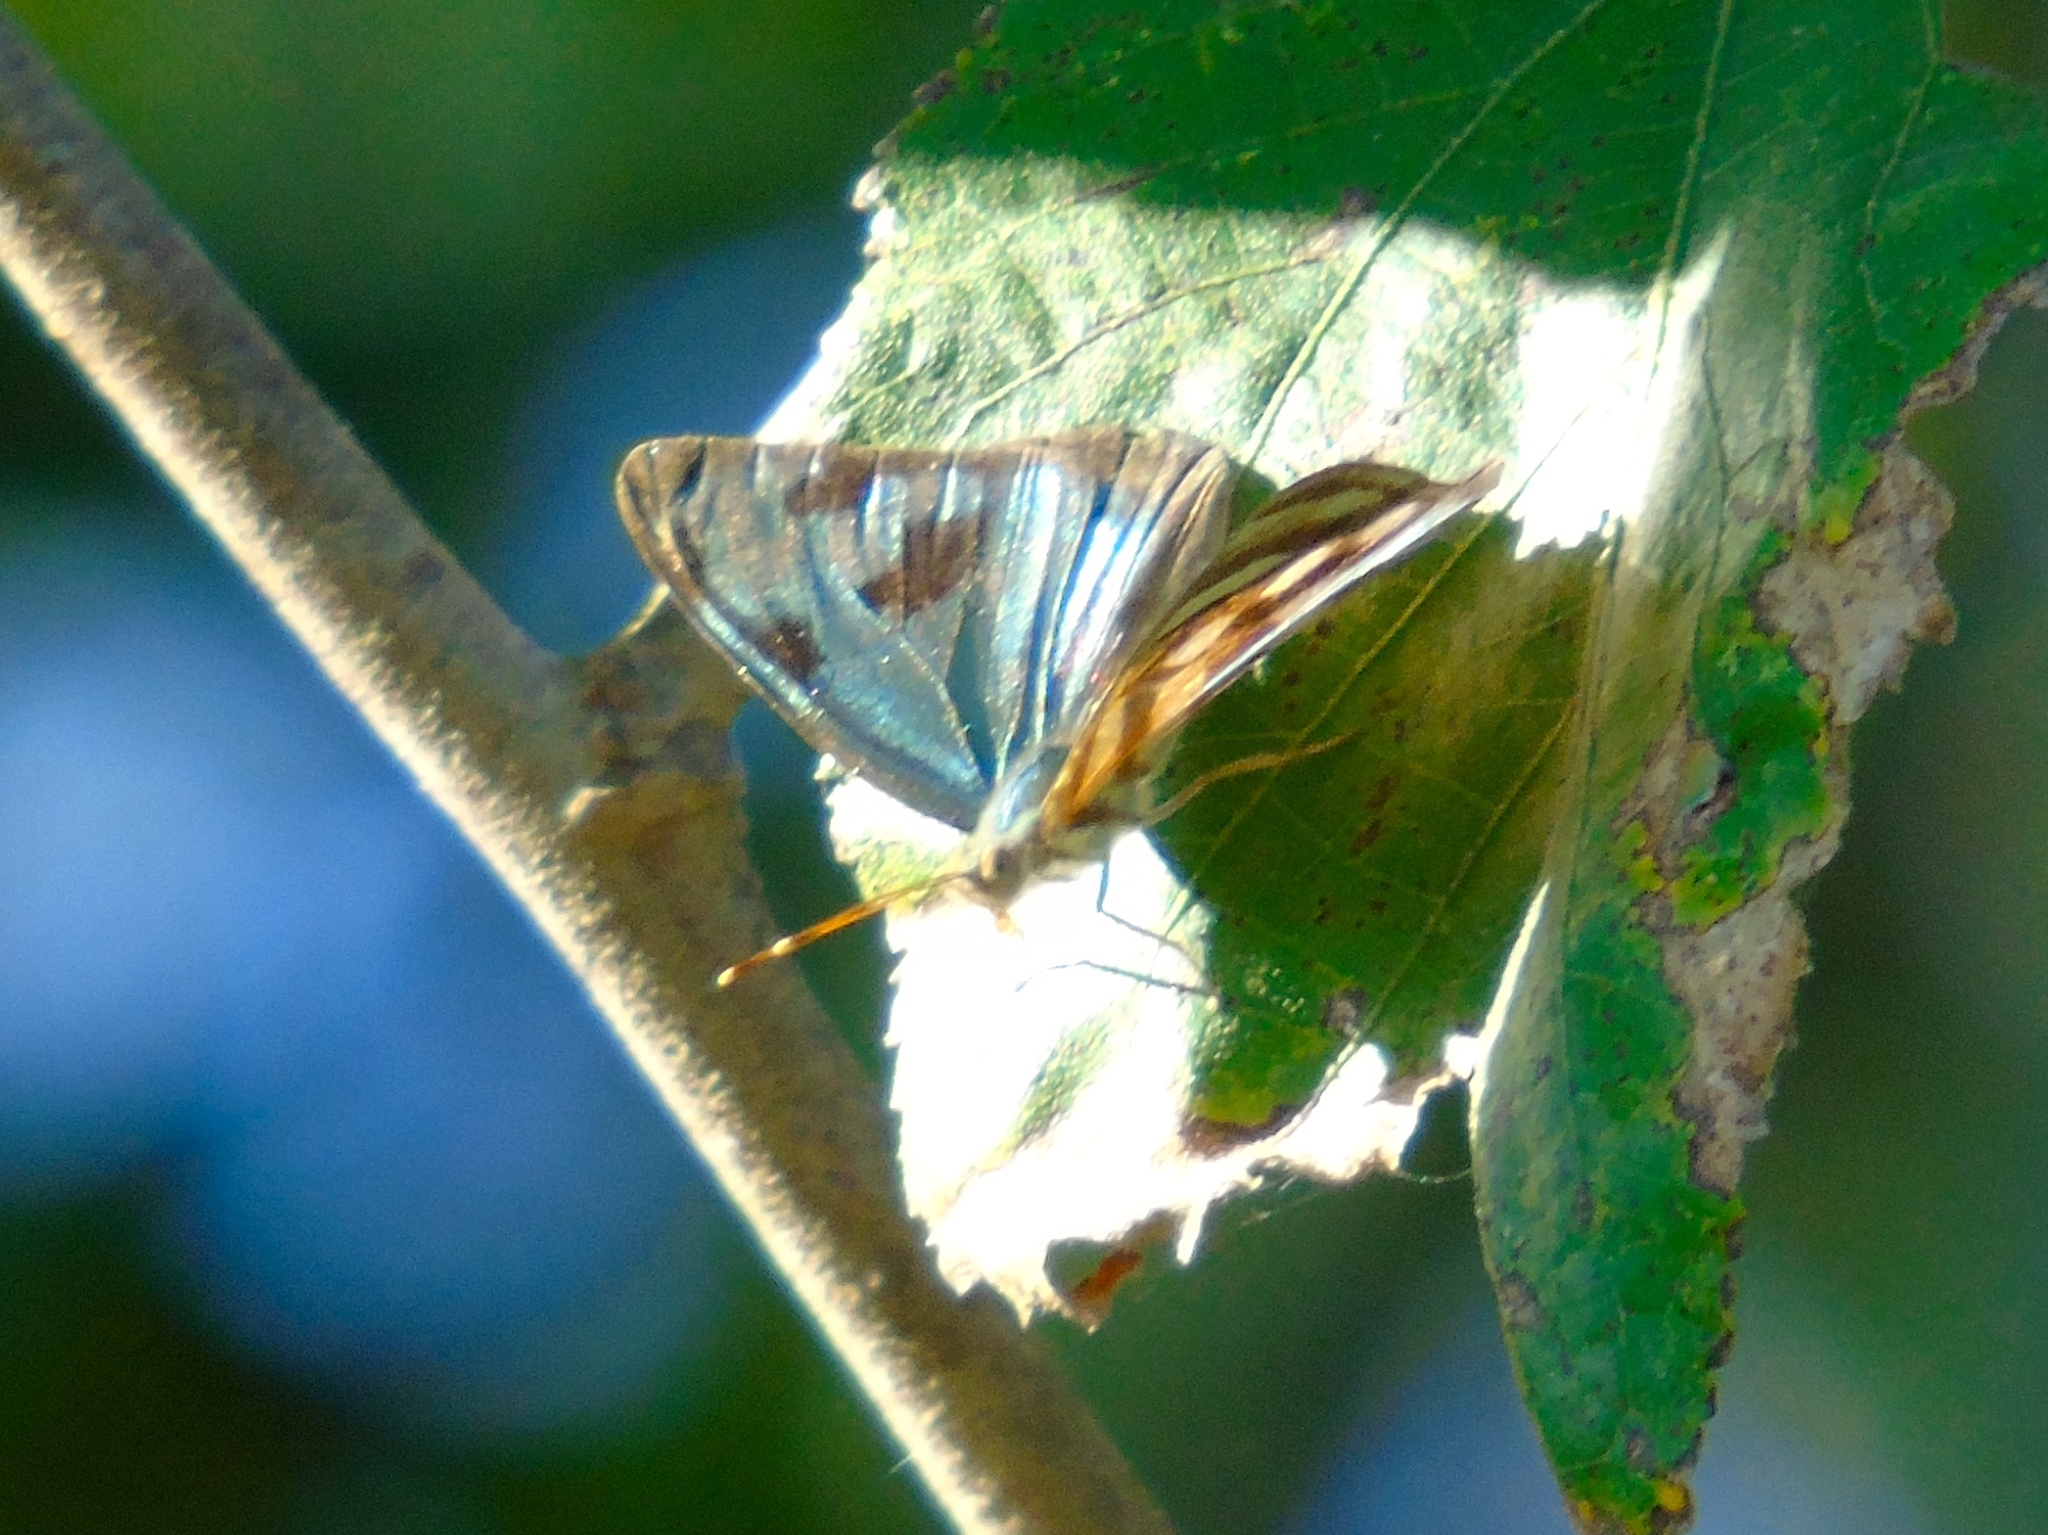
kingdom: Animalia
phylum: Arthropoda
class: Insecta
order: Lepidoptera
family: Nymphalidae
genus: Dynamine
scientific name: Dynamine mylitta
